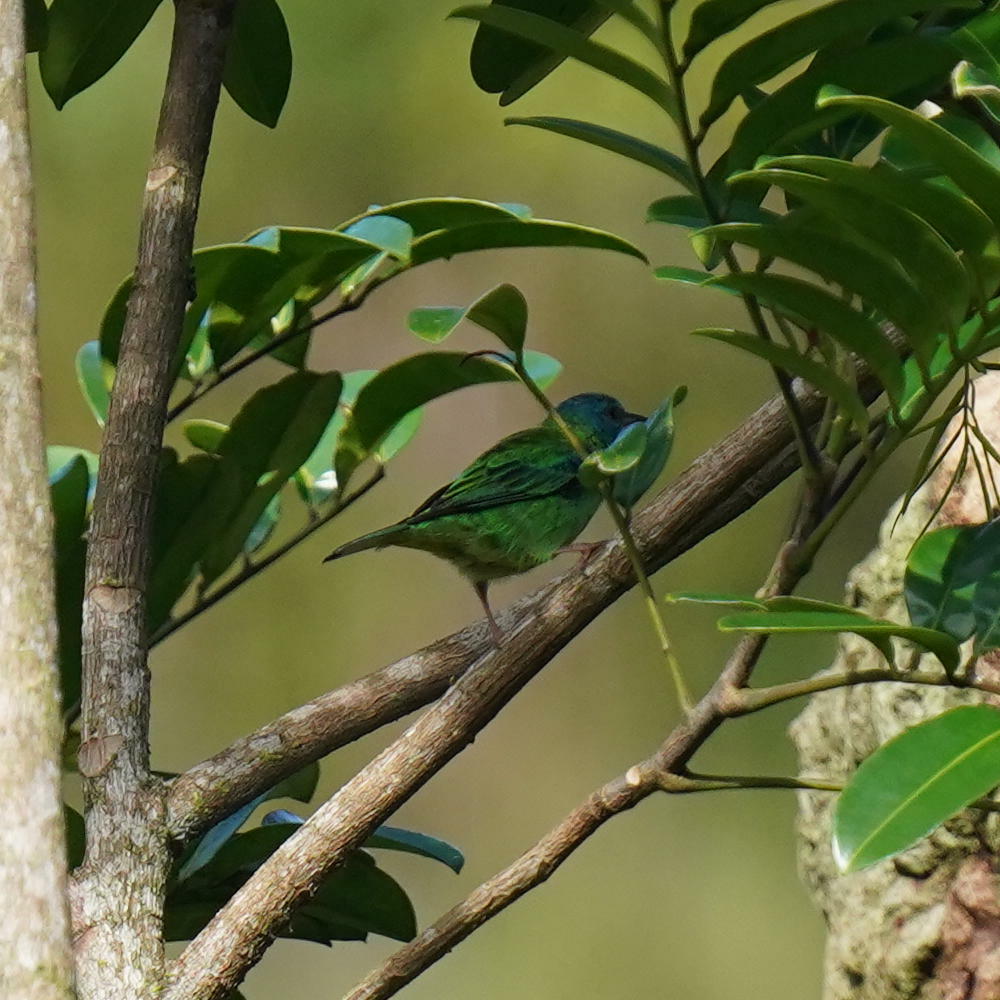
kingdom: Animalia
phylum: Chordata
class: Aves
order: Passeriformes
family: Thraupidae
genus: Dacnis
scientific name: Dacnis cayana
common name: Blue dacnis
